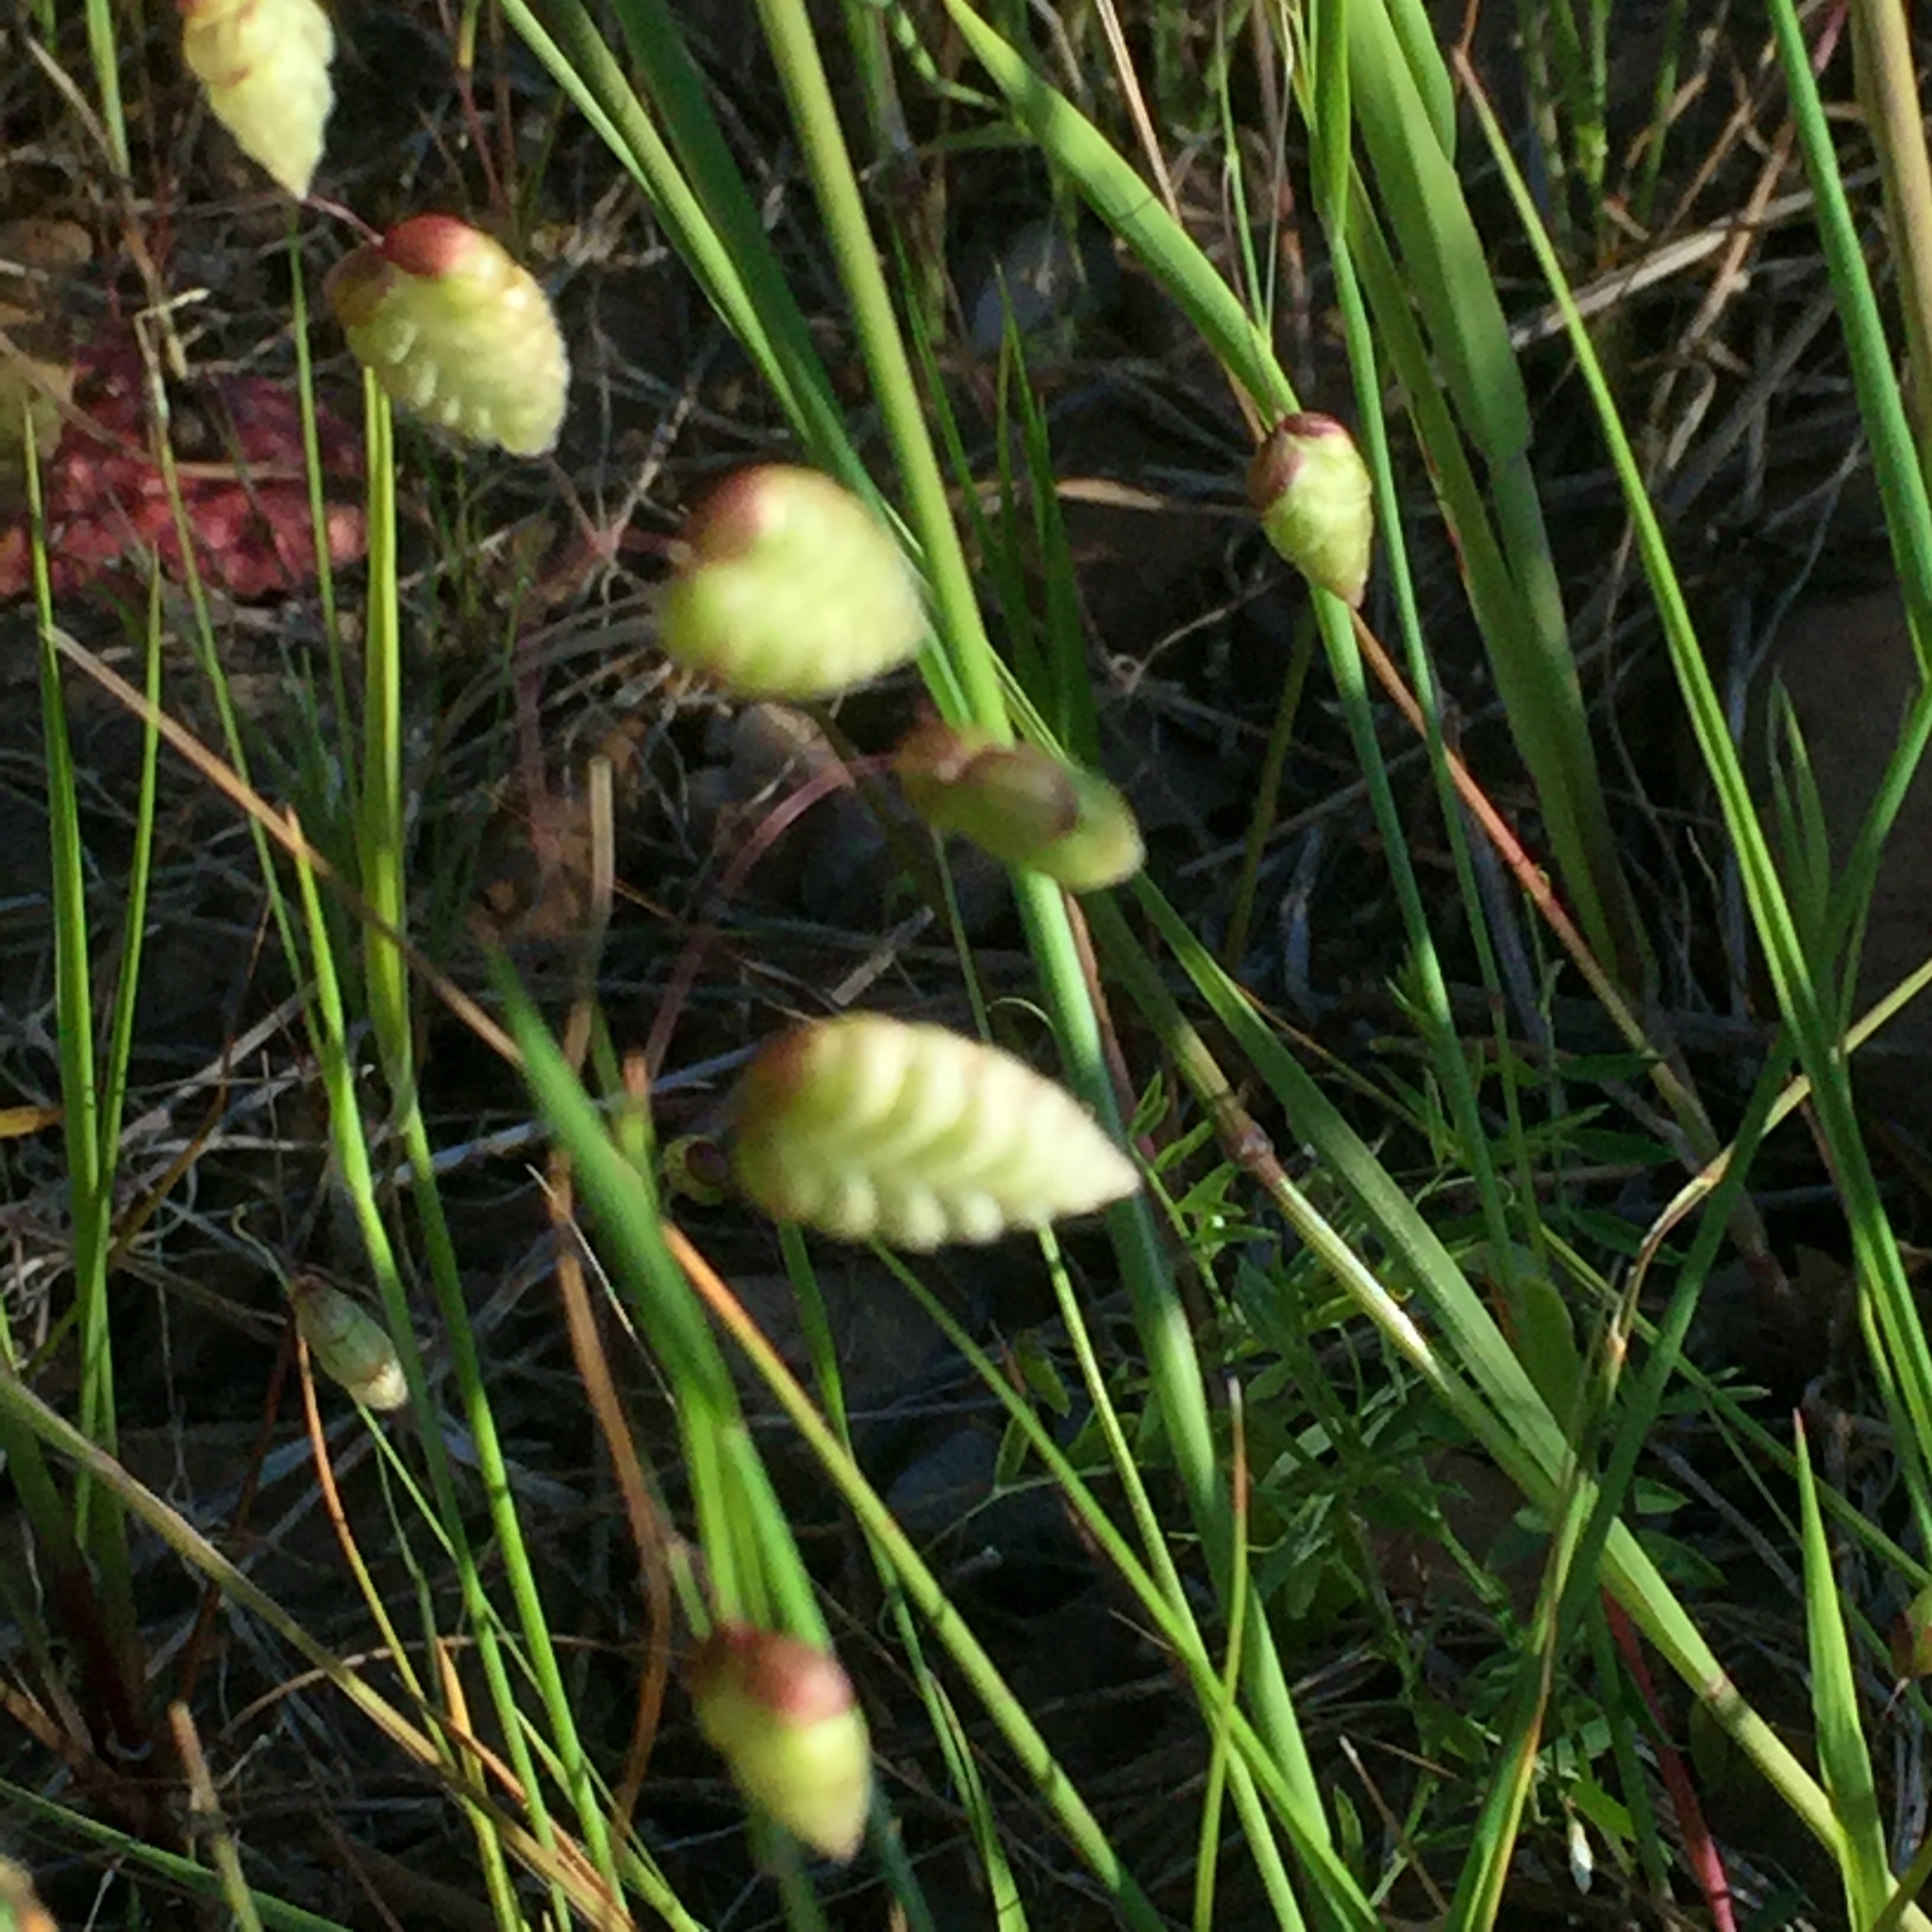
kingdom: Plantae
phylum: Tracheophyta
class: Liliopsida
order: Poales
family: Poaceae
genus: Briza
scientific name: Briza maxima
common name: Big quakinggrass
